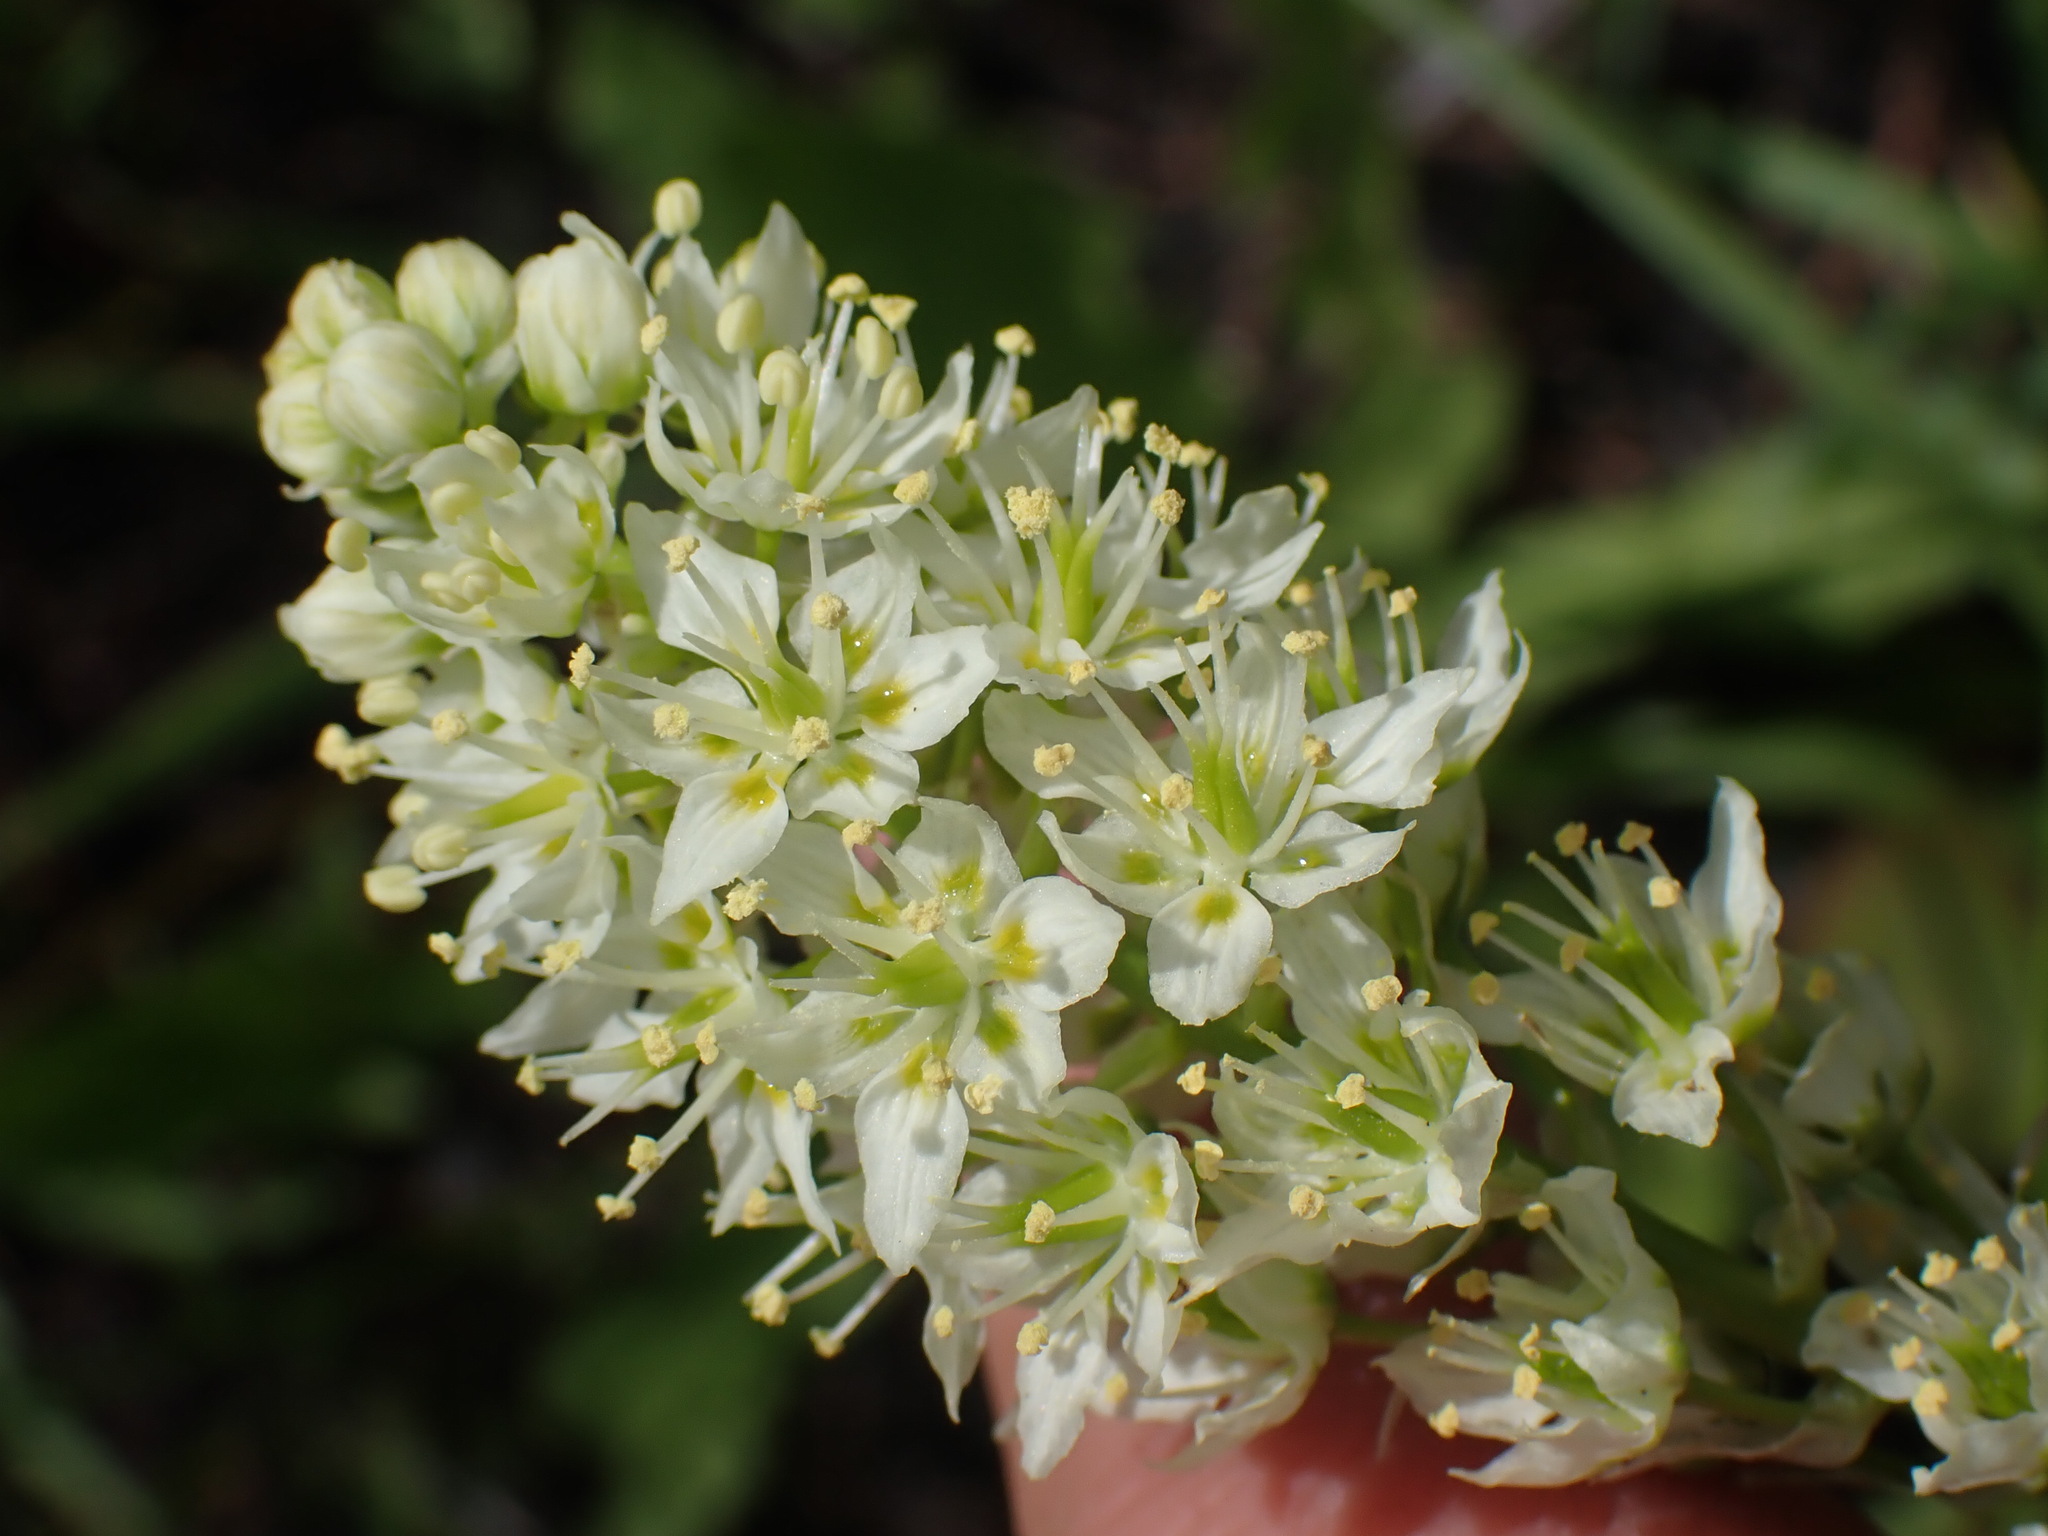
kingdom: Plantae
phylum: Tracheophyta
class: Liliopsida
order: Liliales
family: Melanthiaceae
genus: Toxicoscordion
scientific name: Toxicoscordion venenosum
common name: Meadow death camas
